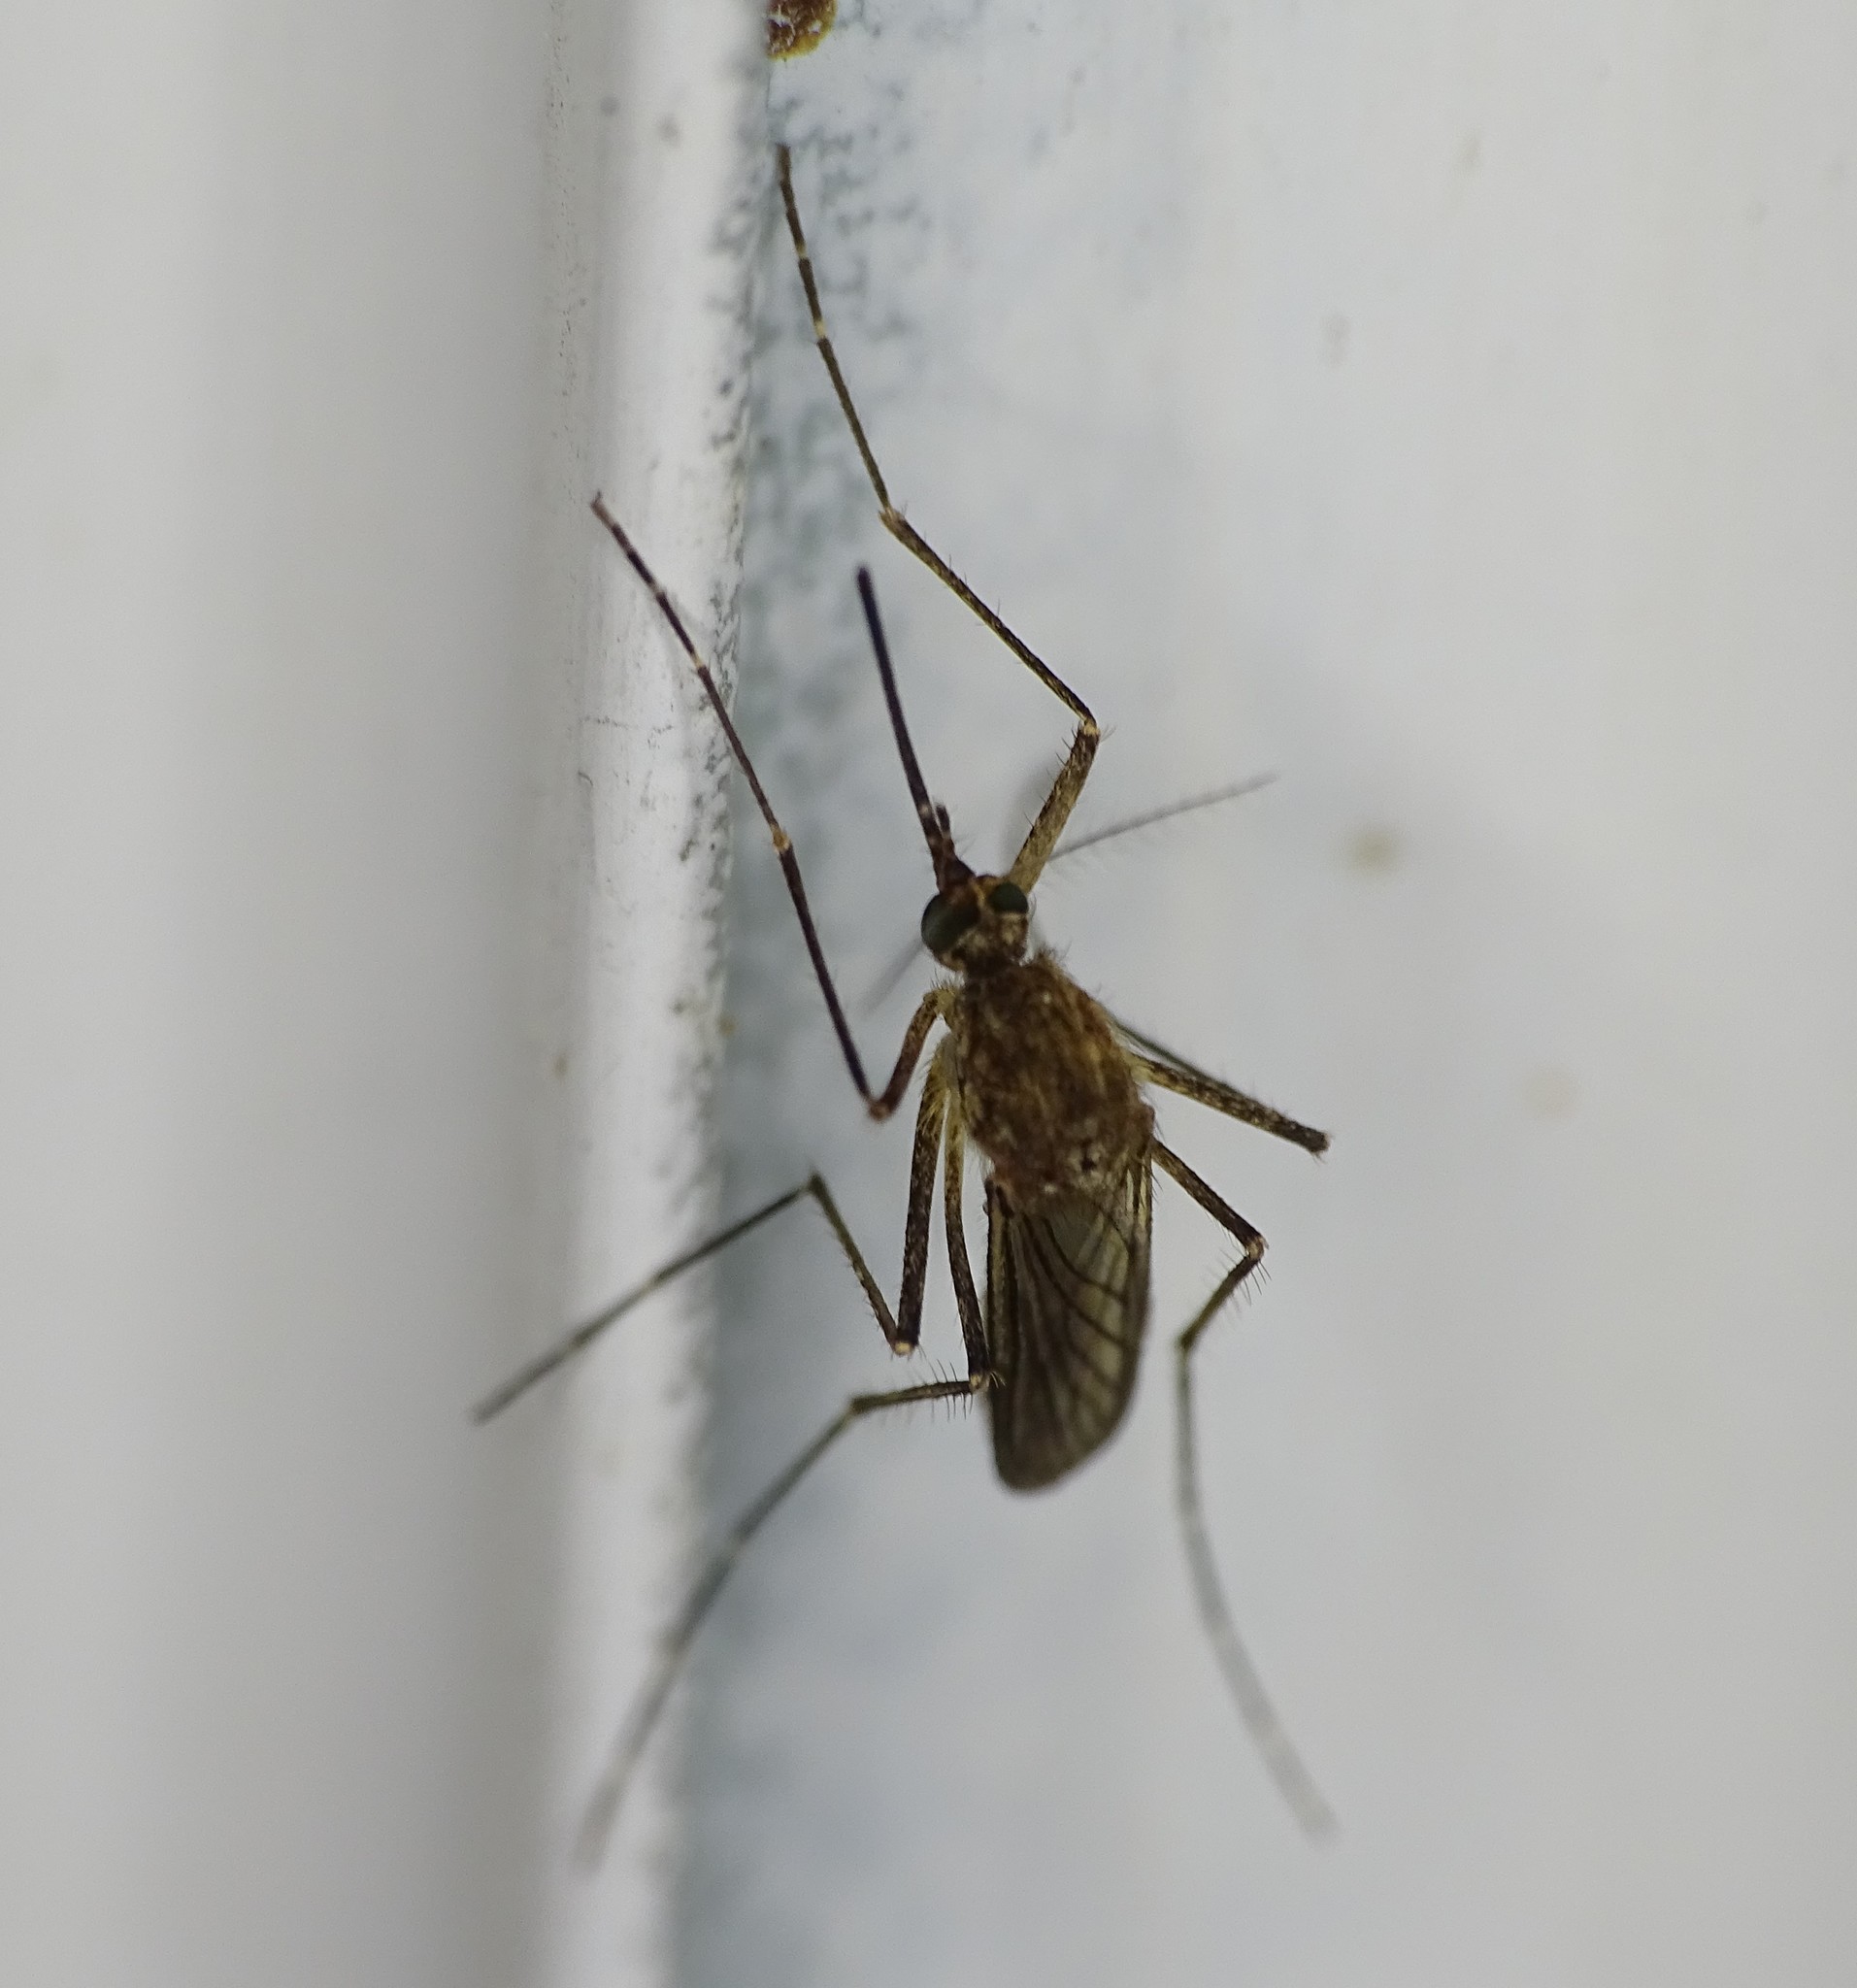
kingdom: Animalia
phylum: Arthropoda
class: Insecta
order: Diptera
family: Culicidae
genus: Aedes
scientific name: Aedes vexans
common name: Inland floodwater mosquito
